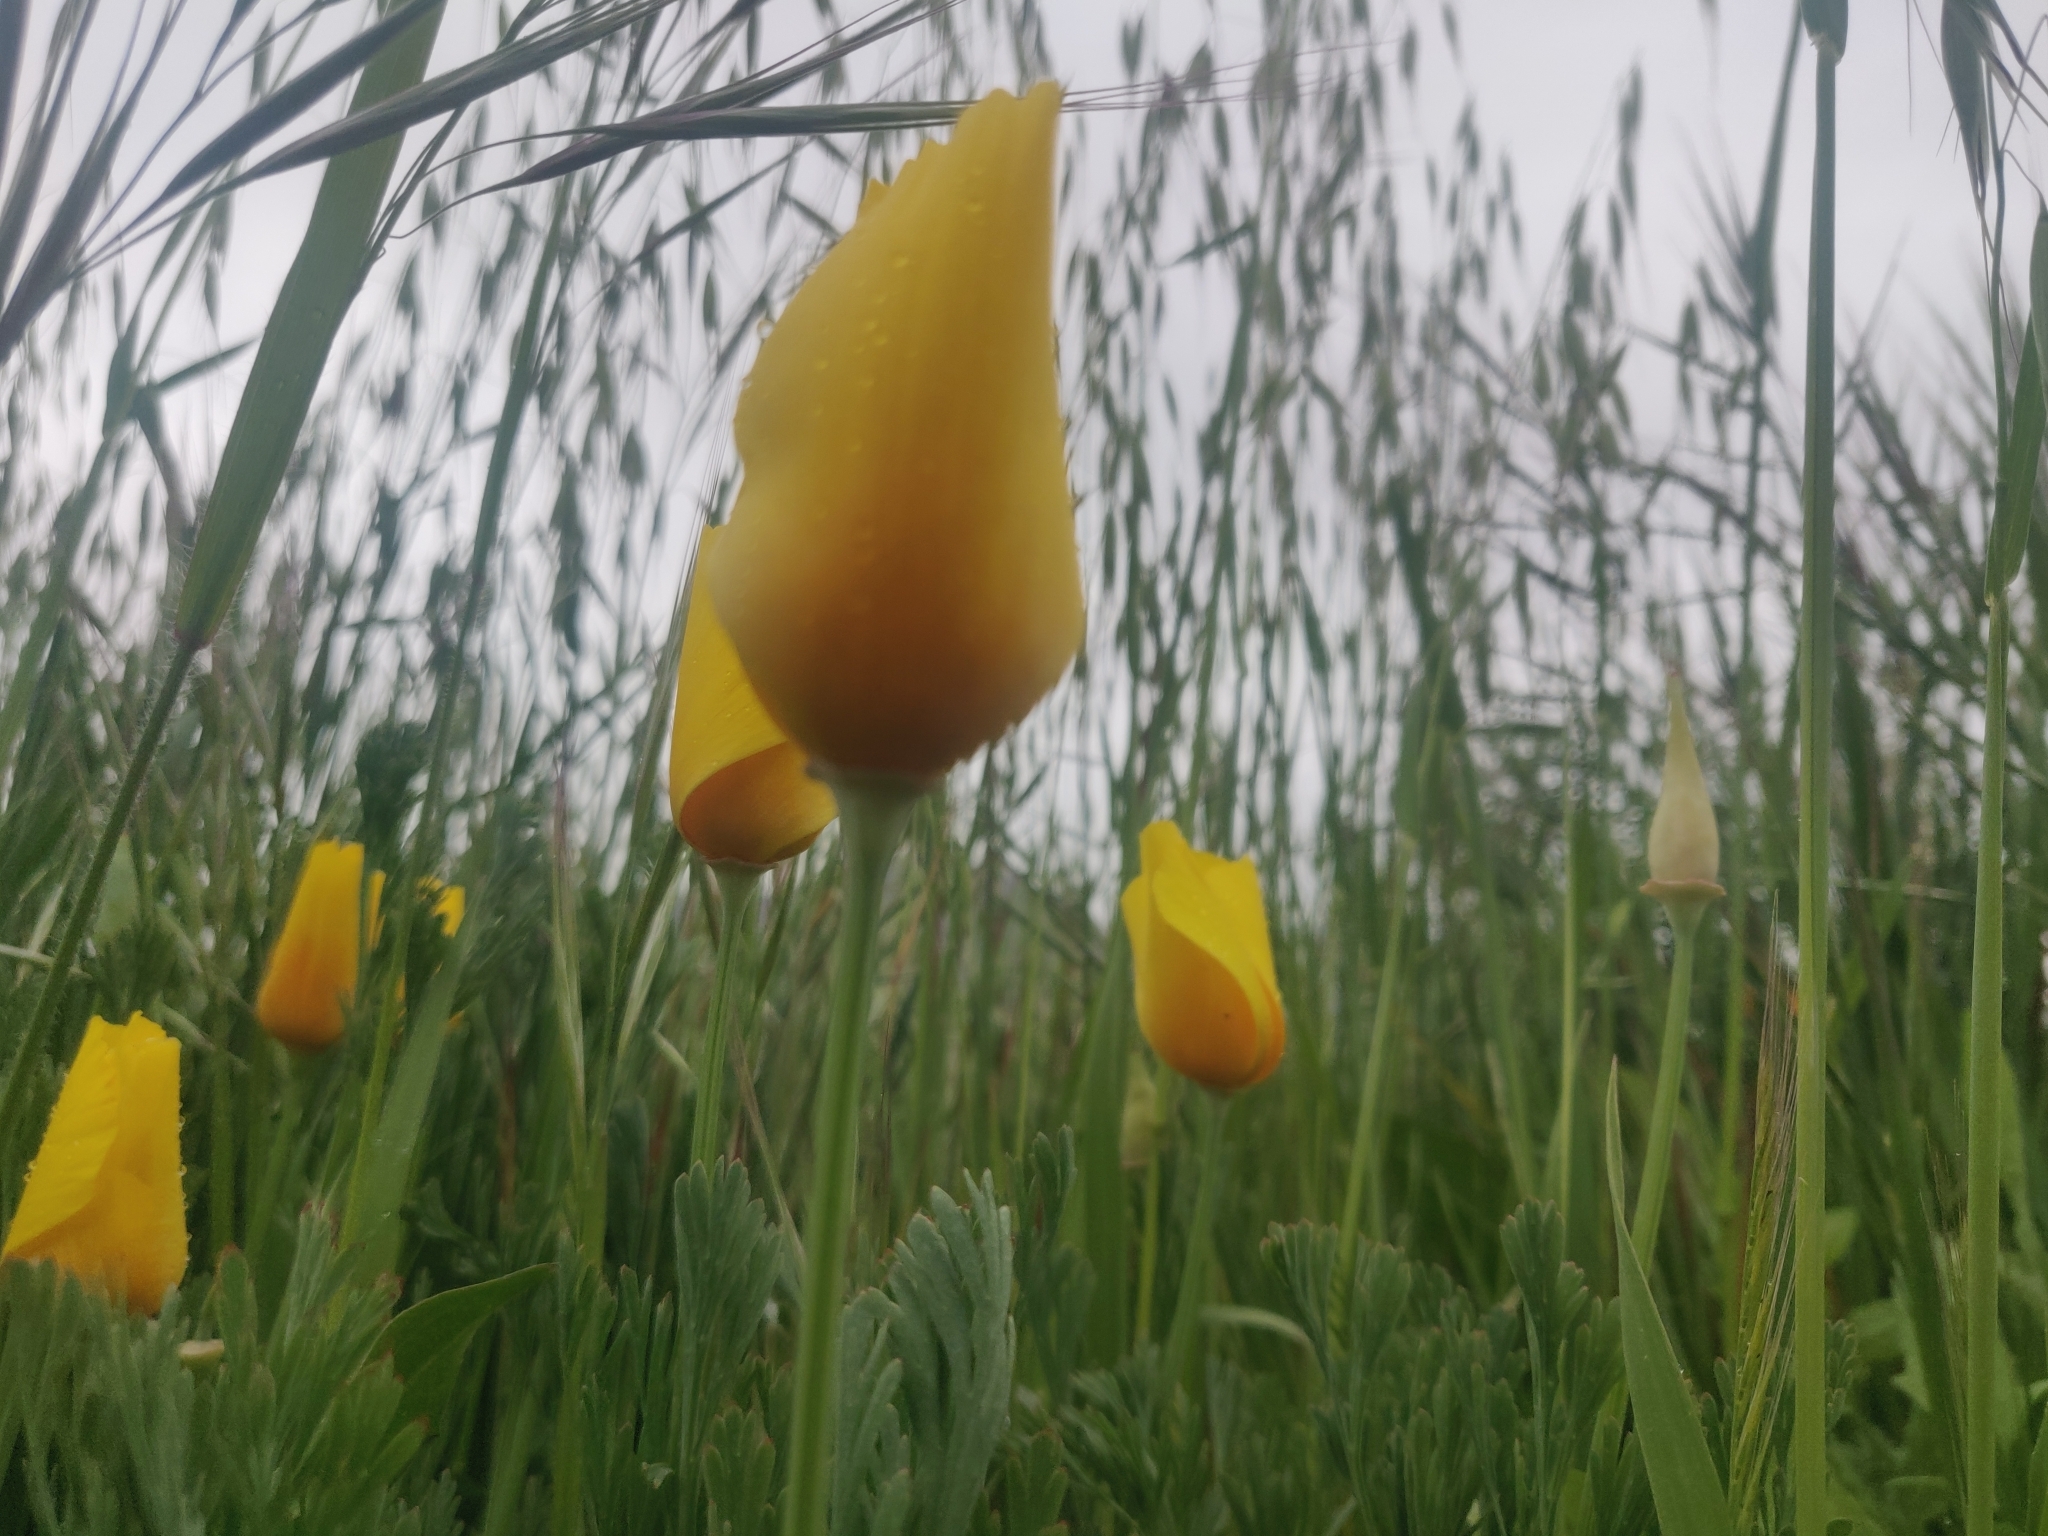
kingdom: Plantae
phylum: Tracheophyta
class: Magnoliopsida
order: Ranunculales
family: Papaveraceae
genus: Eschscholzia
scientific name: Eschscholzia californica
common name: California poppy
